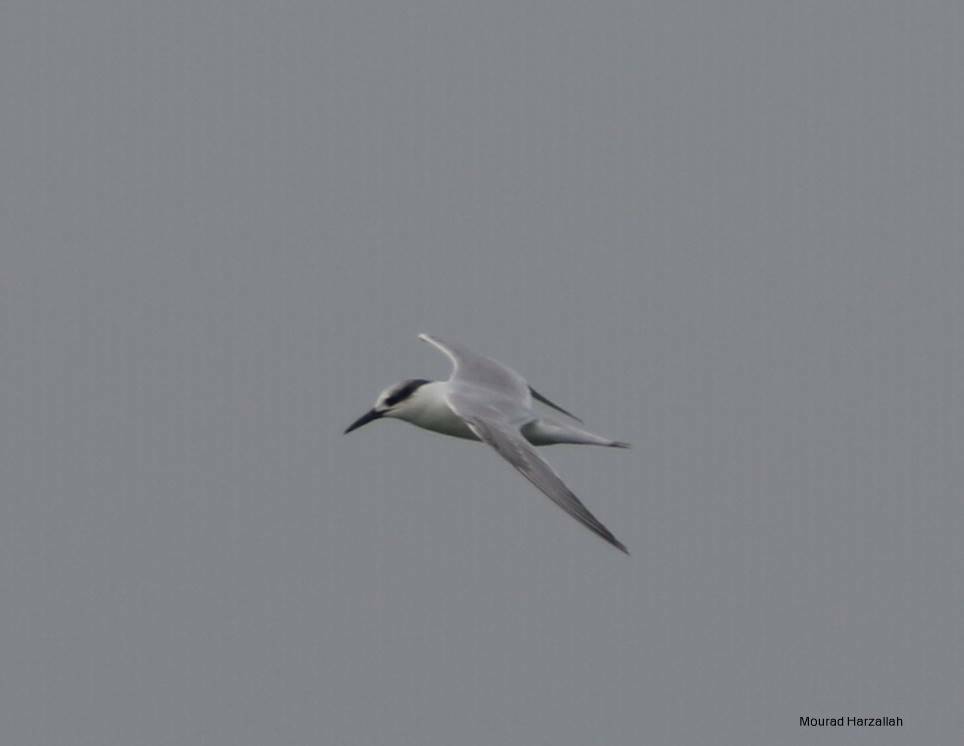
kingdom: Animalia
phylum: Chordata
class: Aves
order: Charadriiformes
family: Laridae
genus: Thalasseus
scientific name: Thalasseus sandvicensis
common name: Sandwich tern
